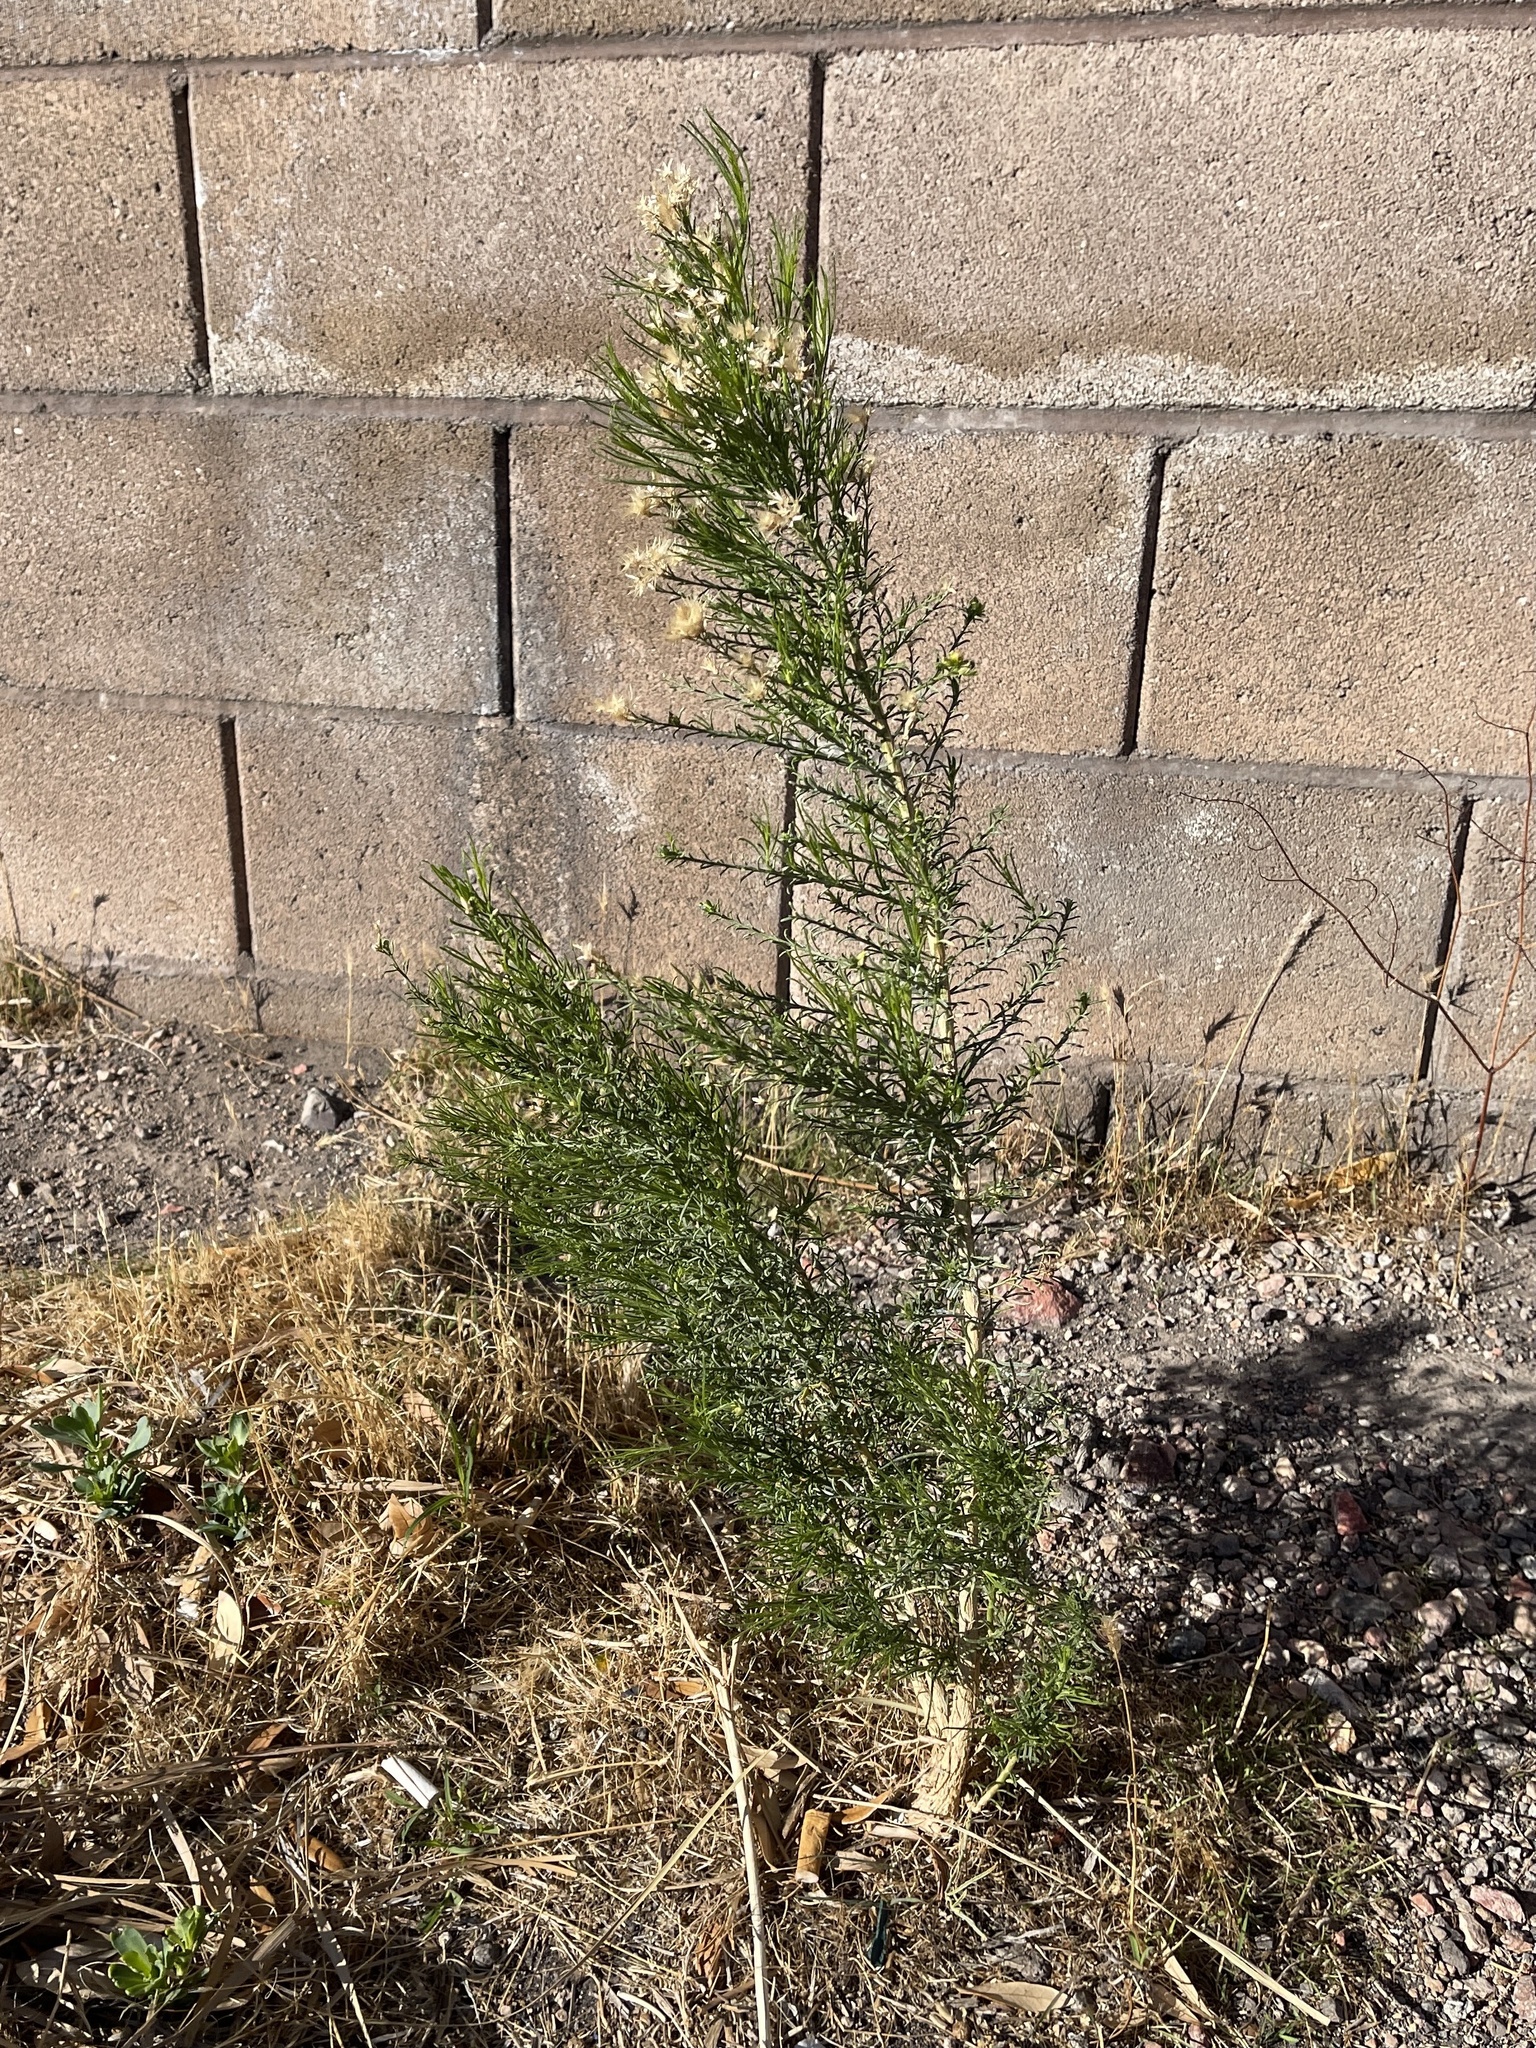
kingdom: Plantae
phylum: Tracheophyta
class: Magnoliopsida
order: Asterales
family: Asteraceae
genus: Baccharis
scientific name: Baccharis sarothroides
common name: Desert-broom
